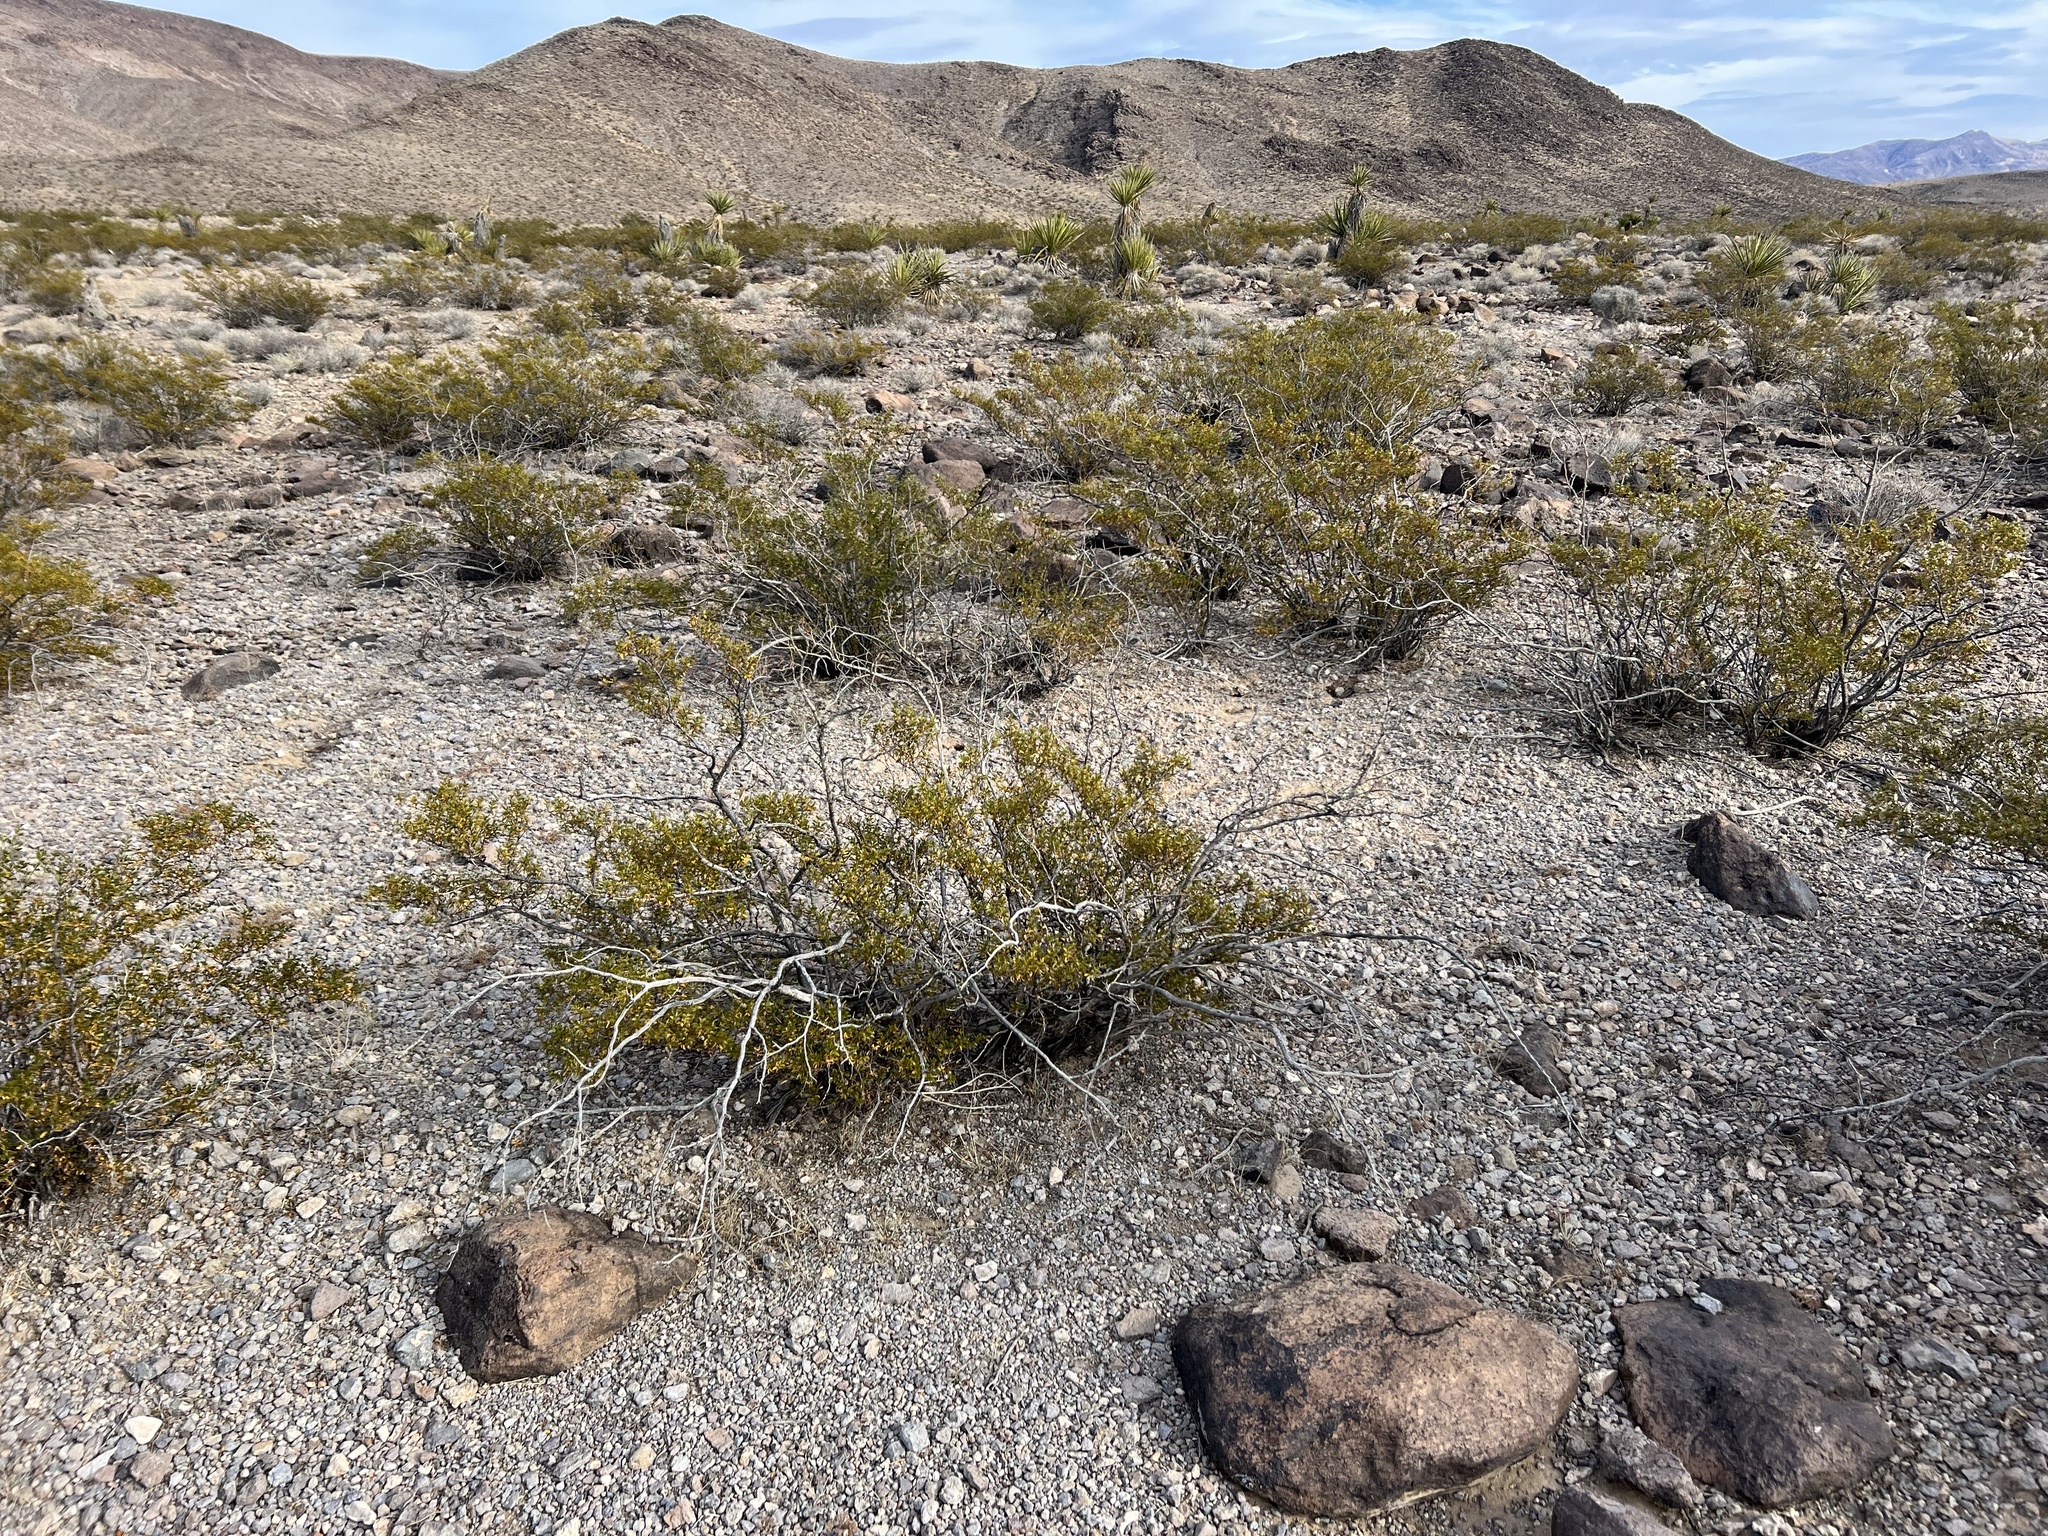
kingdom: Plantae
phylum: Tracheophyta
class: Magnoliopsida
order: Zygophyllales
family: Zygophyllaceae
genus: Larrea
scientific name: Larrea tridentata
